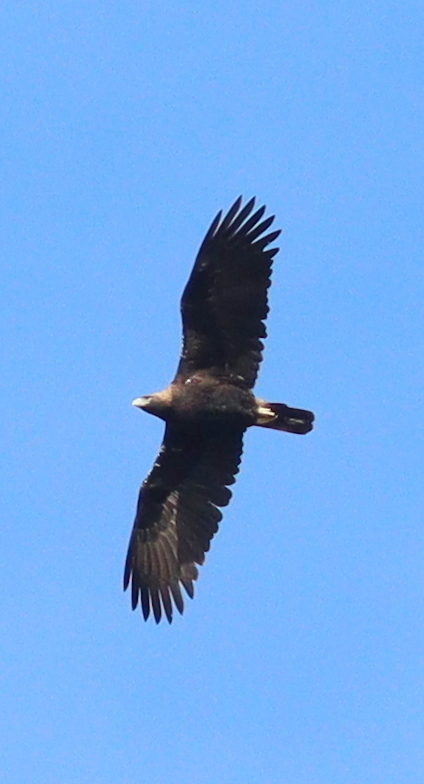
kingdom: Animalia
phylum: Chordata
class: Aves
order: Accipitriformes
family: Accipitridae
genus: Aquila
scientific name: Aquila adalberti
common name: Spanish imperial eagle
